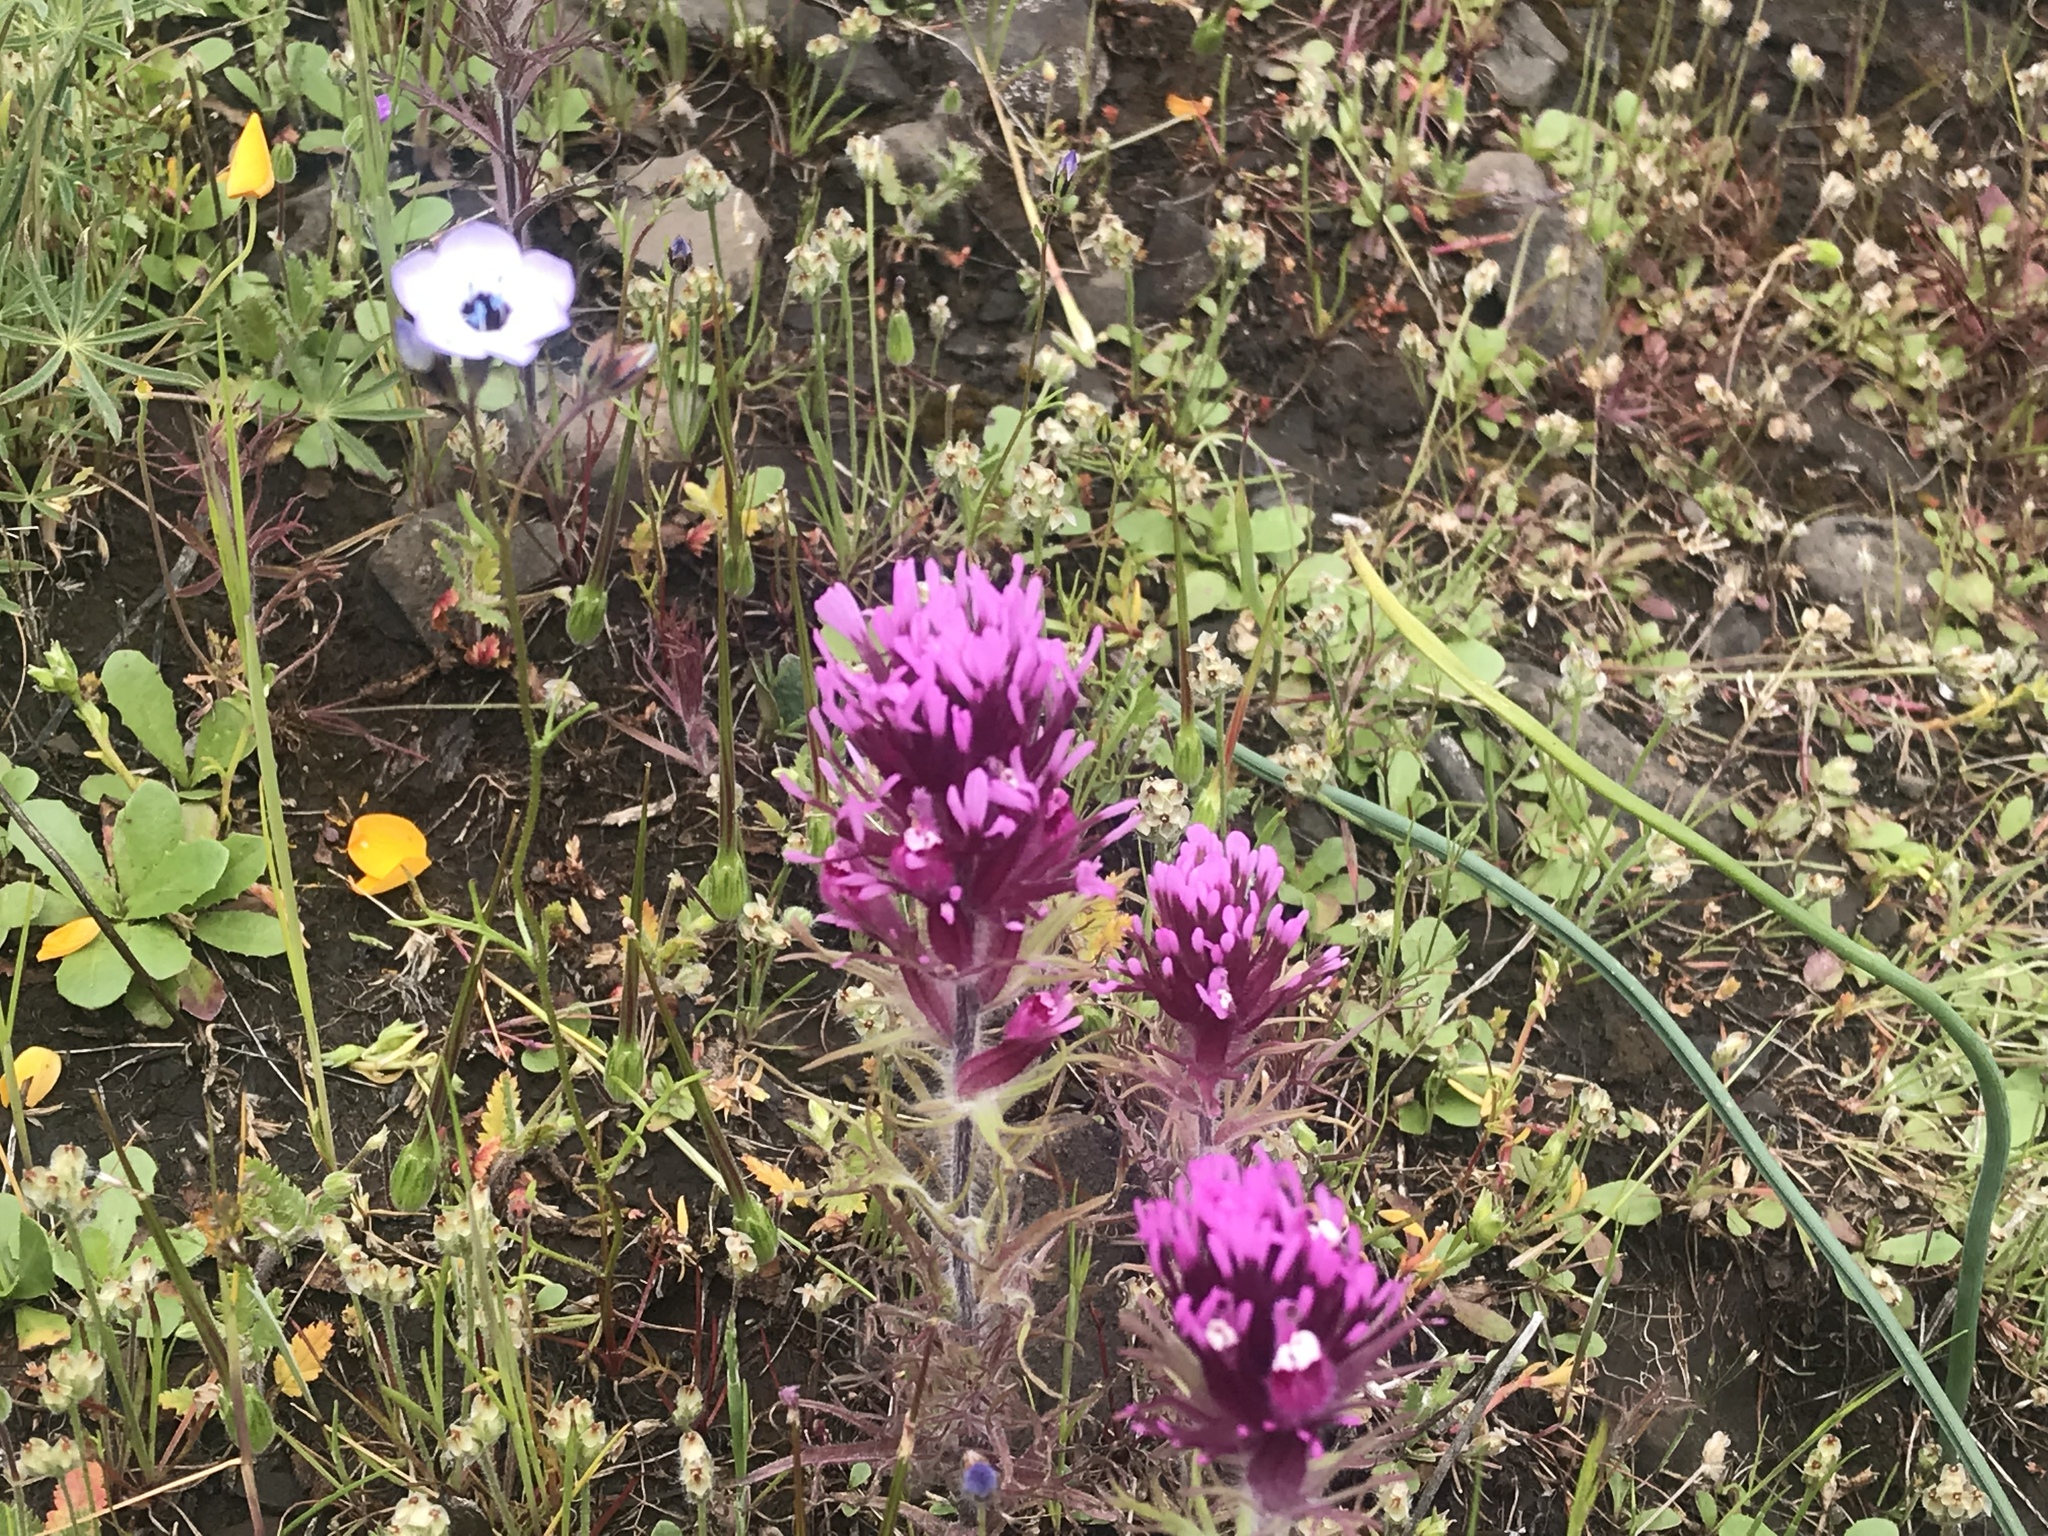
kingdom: Plantae
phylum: Tracheophyta
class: Magnoliopsida
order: Lamiales
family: Orobanchaceae
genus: Castilleja
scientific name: Castilleja exserta
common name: Purple owl-clover
